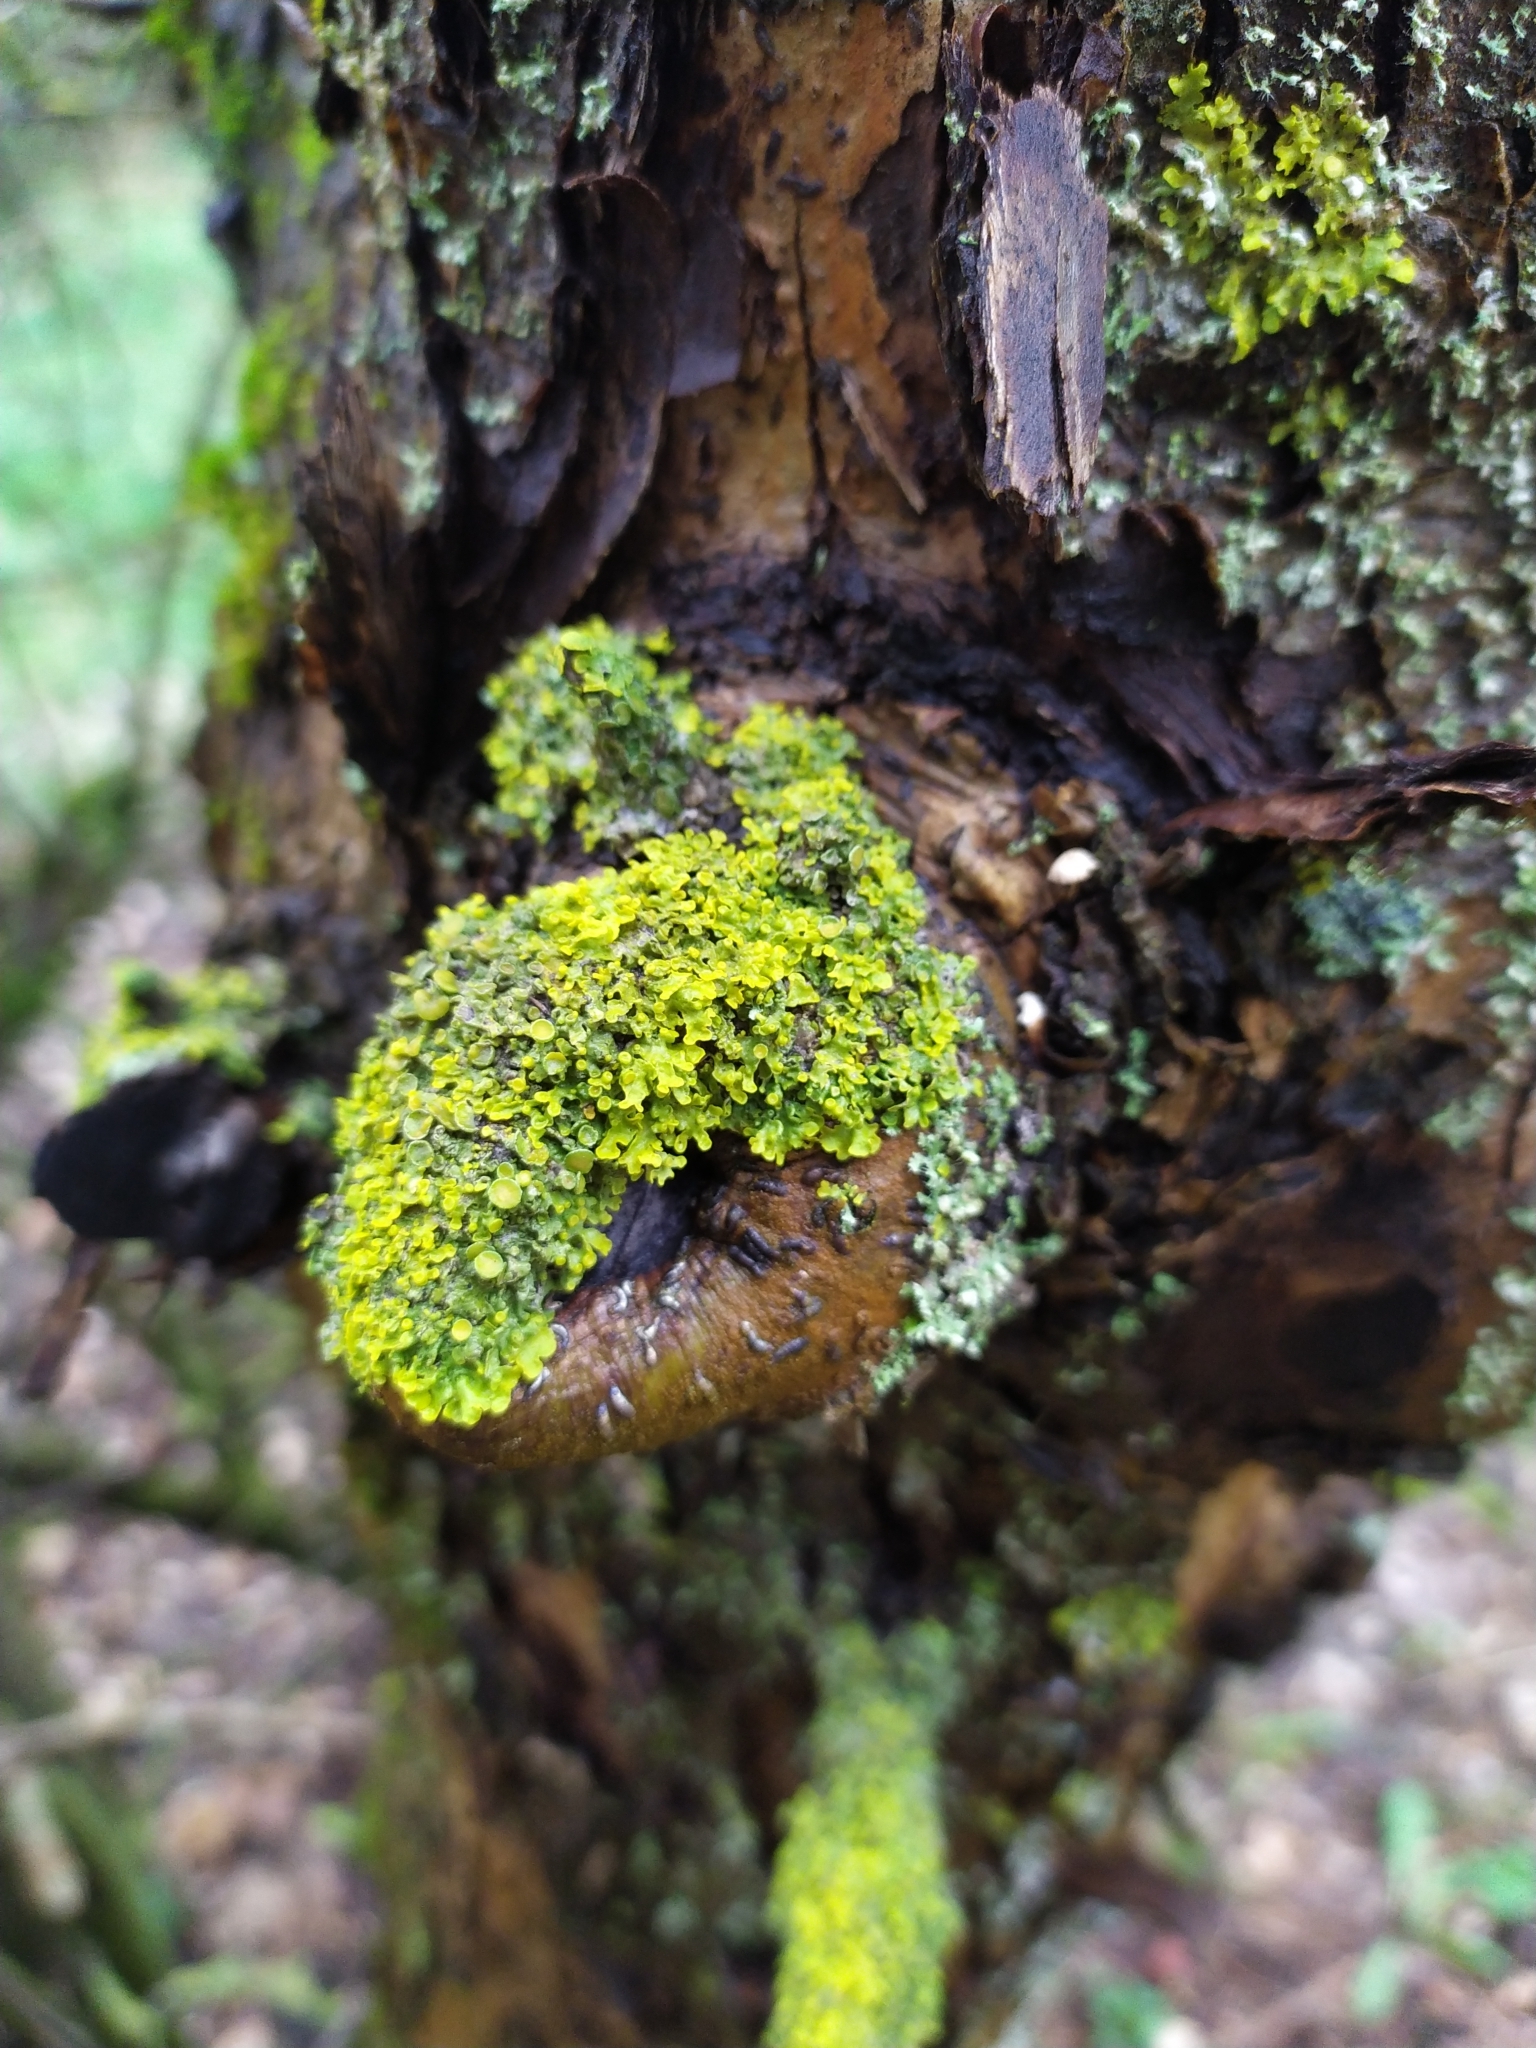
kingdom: Fungi
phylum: Ascomycota
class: Lecanoromycetes
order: Teloschistales
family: Teloschistaceae
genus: Xanthoria
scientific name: Xanthoria parietina
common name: Common orange lichen
